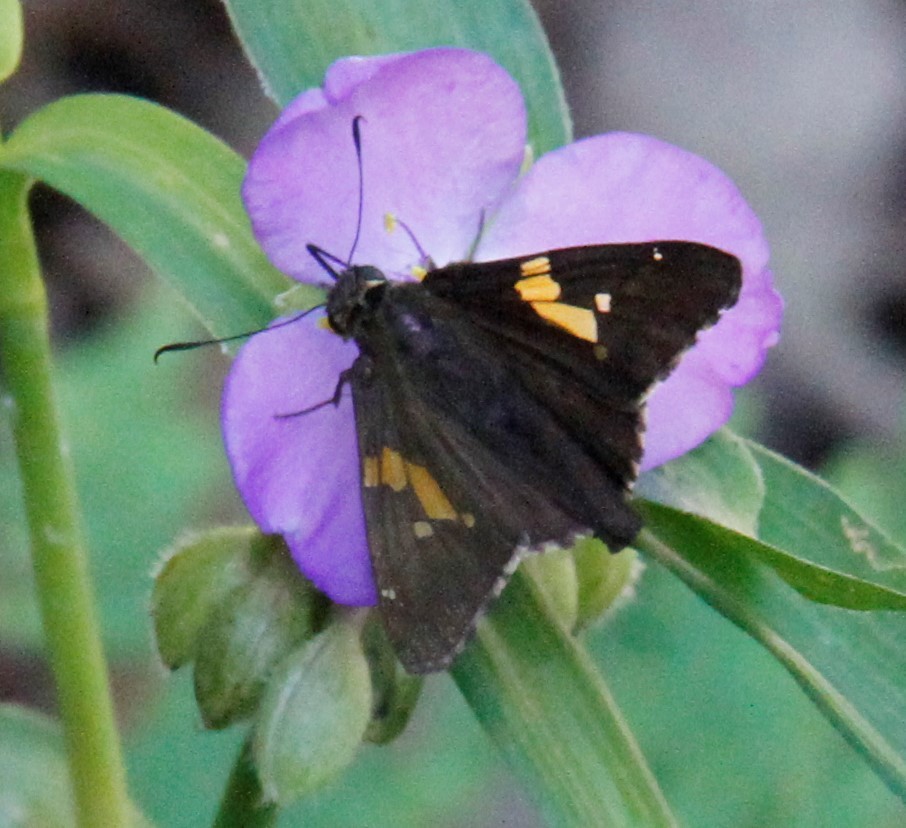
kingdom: Animalia
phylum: Arthropoda
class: Insecta
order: Lepidoptera
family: Hesperiidae
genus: Epargyreus
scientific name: Epargyreus clarus
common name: Silver-spotted skipper
